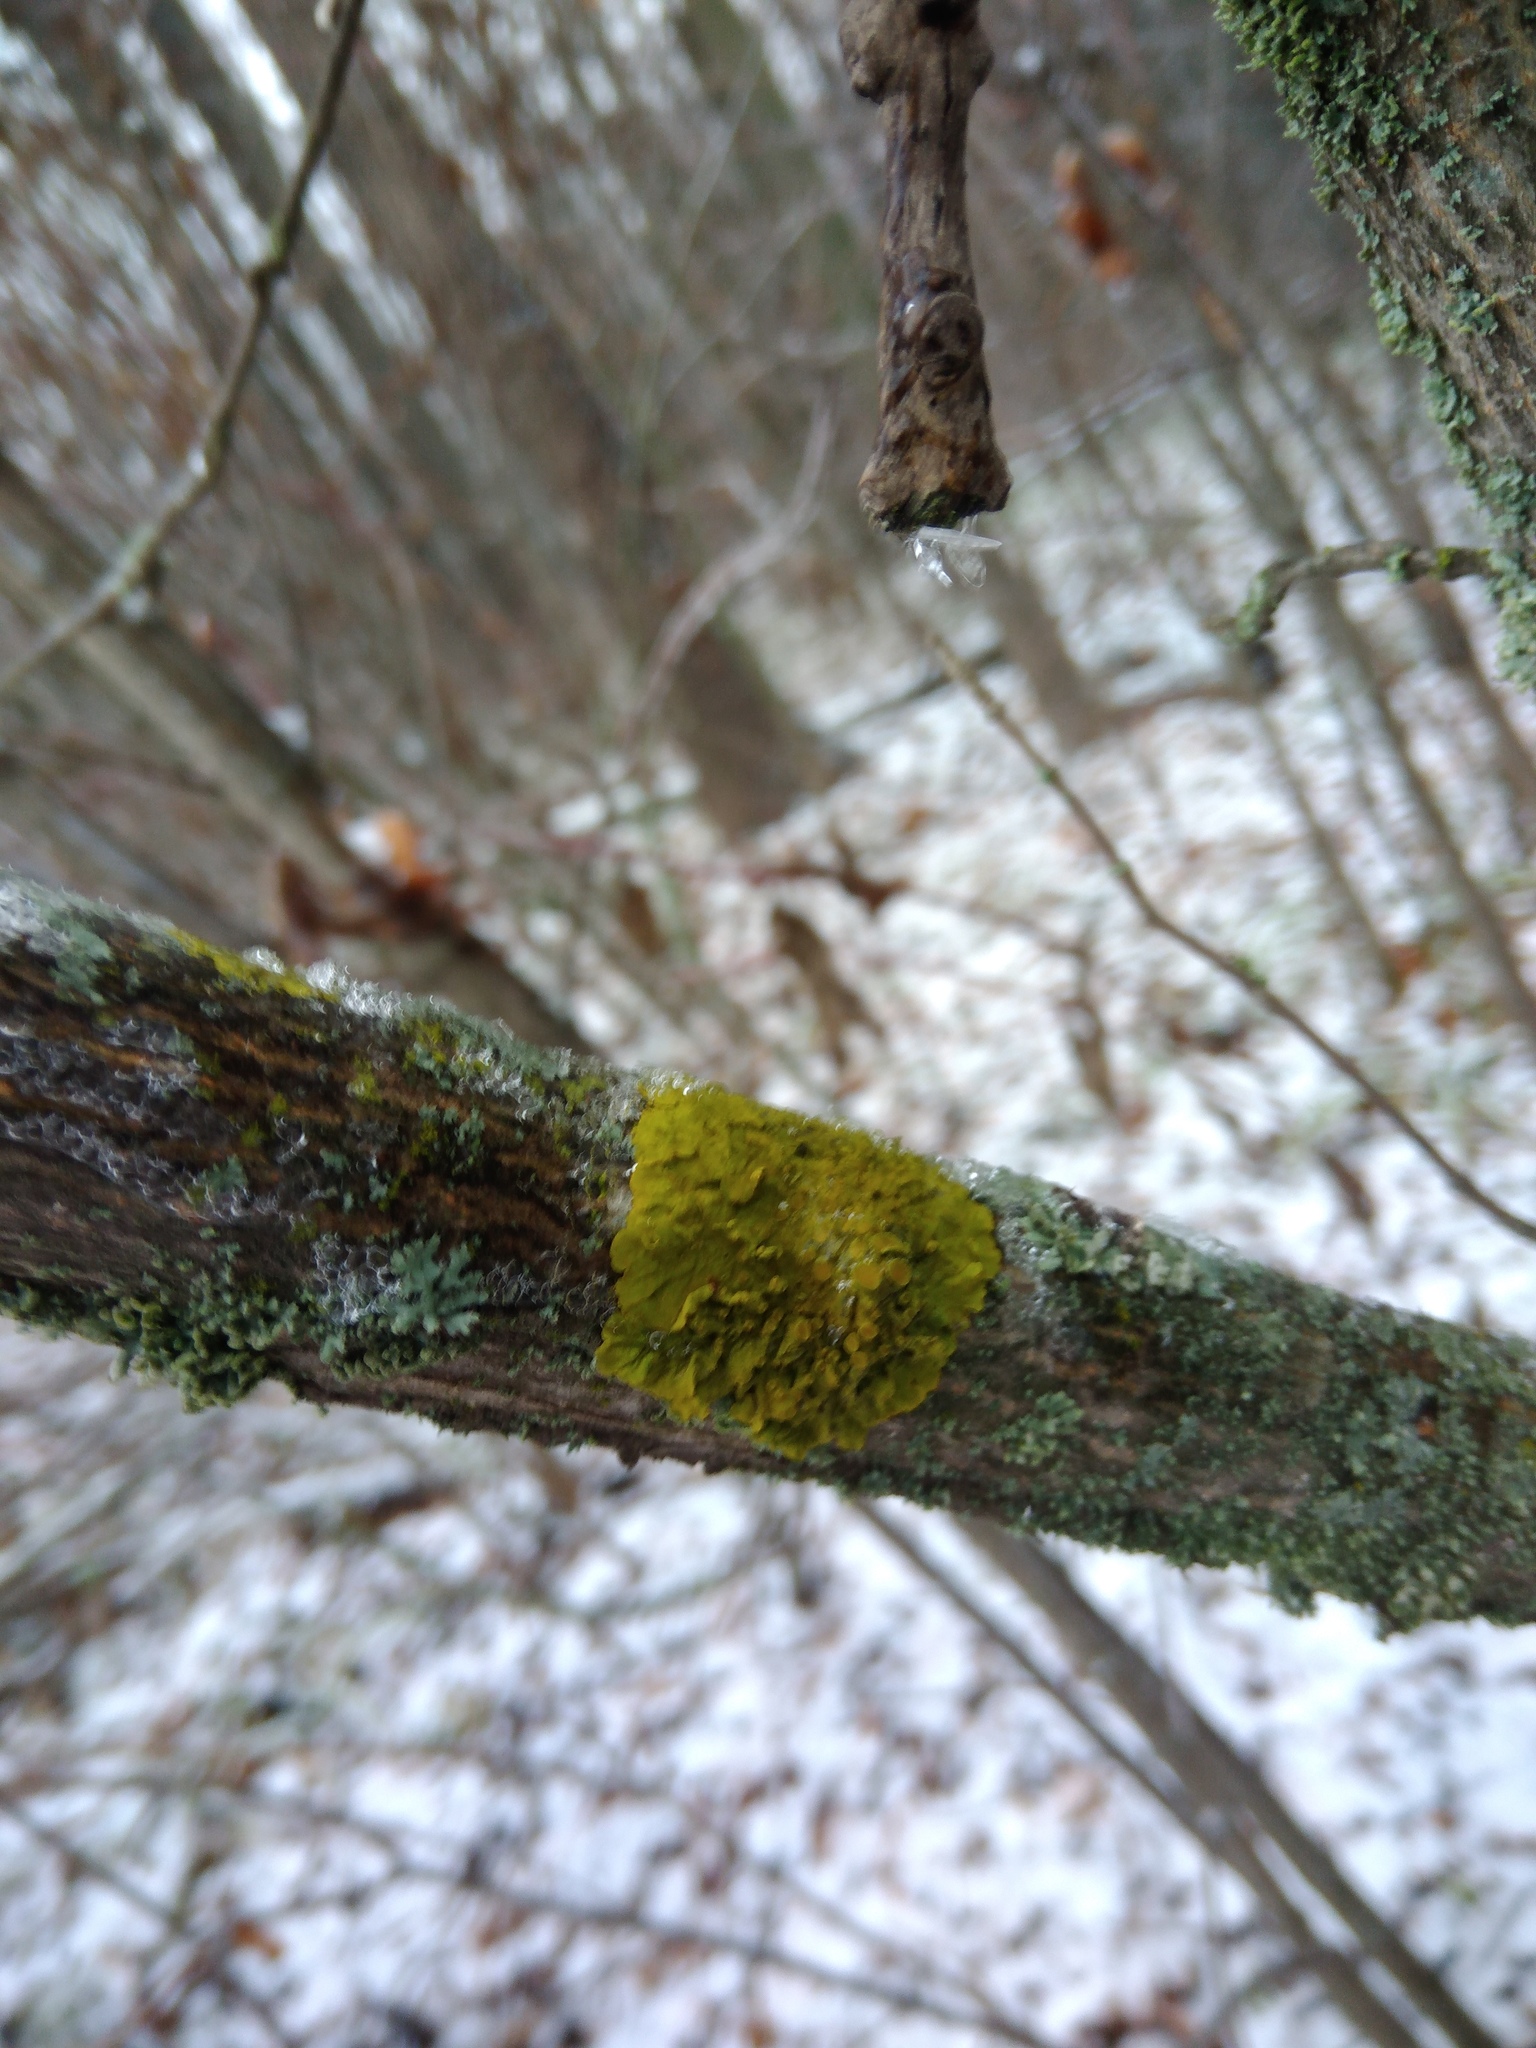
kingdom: Fungi
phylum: Ascomycota
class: Lecanoromycetes
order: Teloschistales
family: Teloschistaceae
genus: Xanthoria
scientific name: Xanthoria parietina
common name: Common orange lichen
